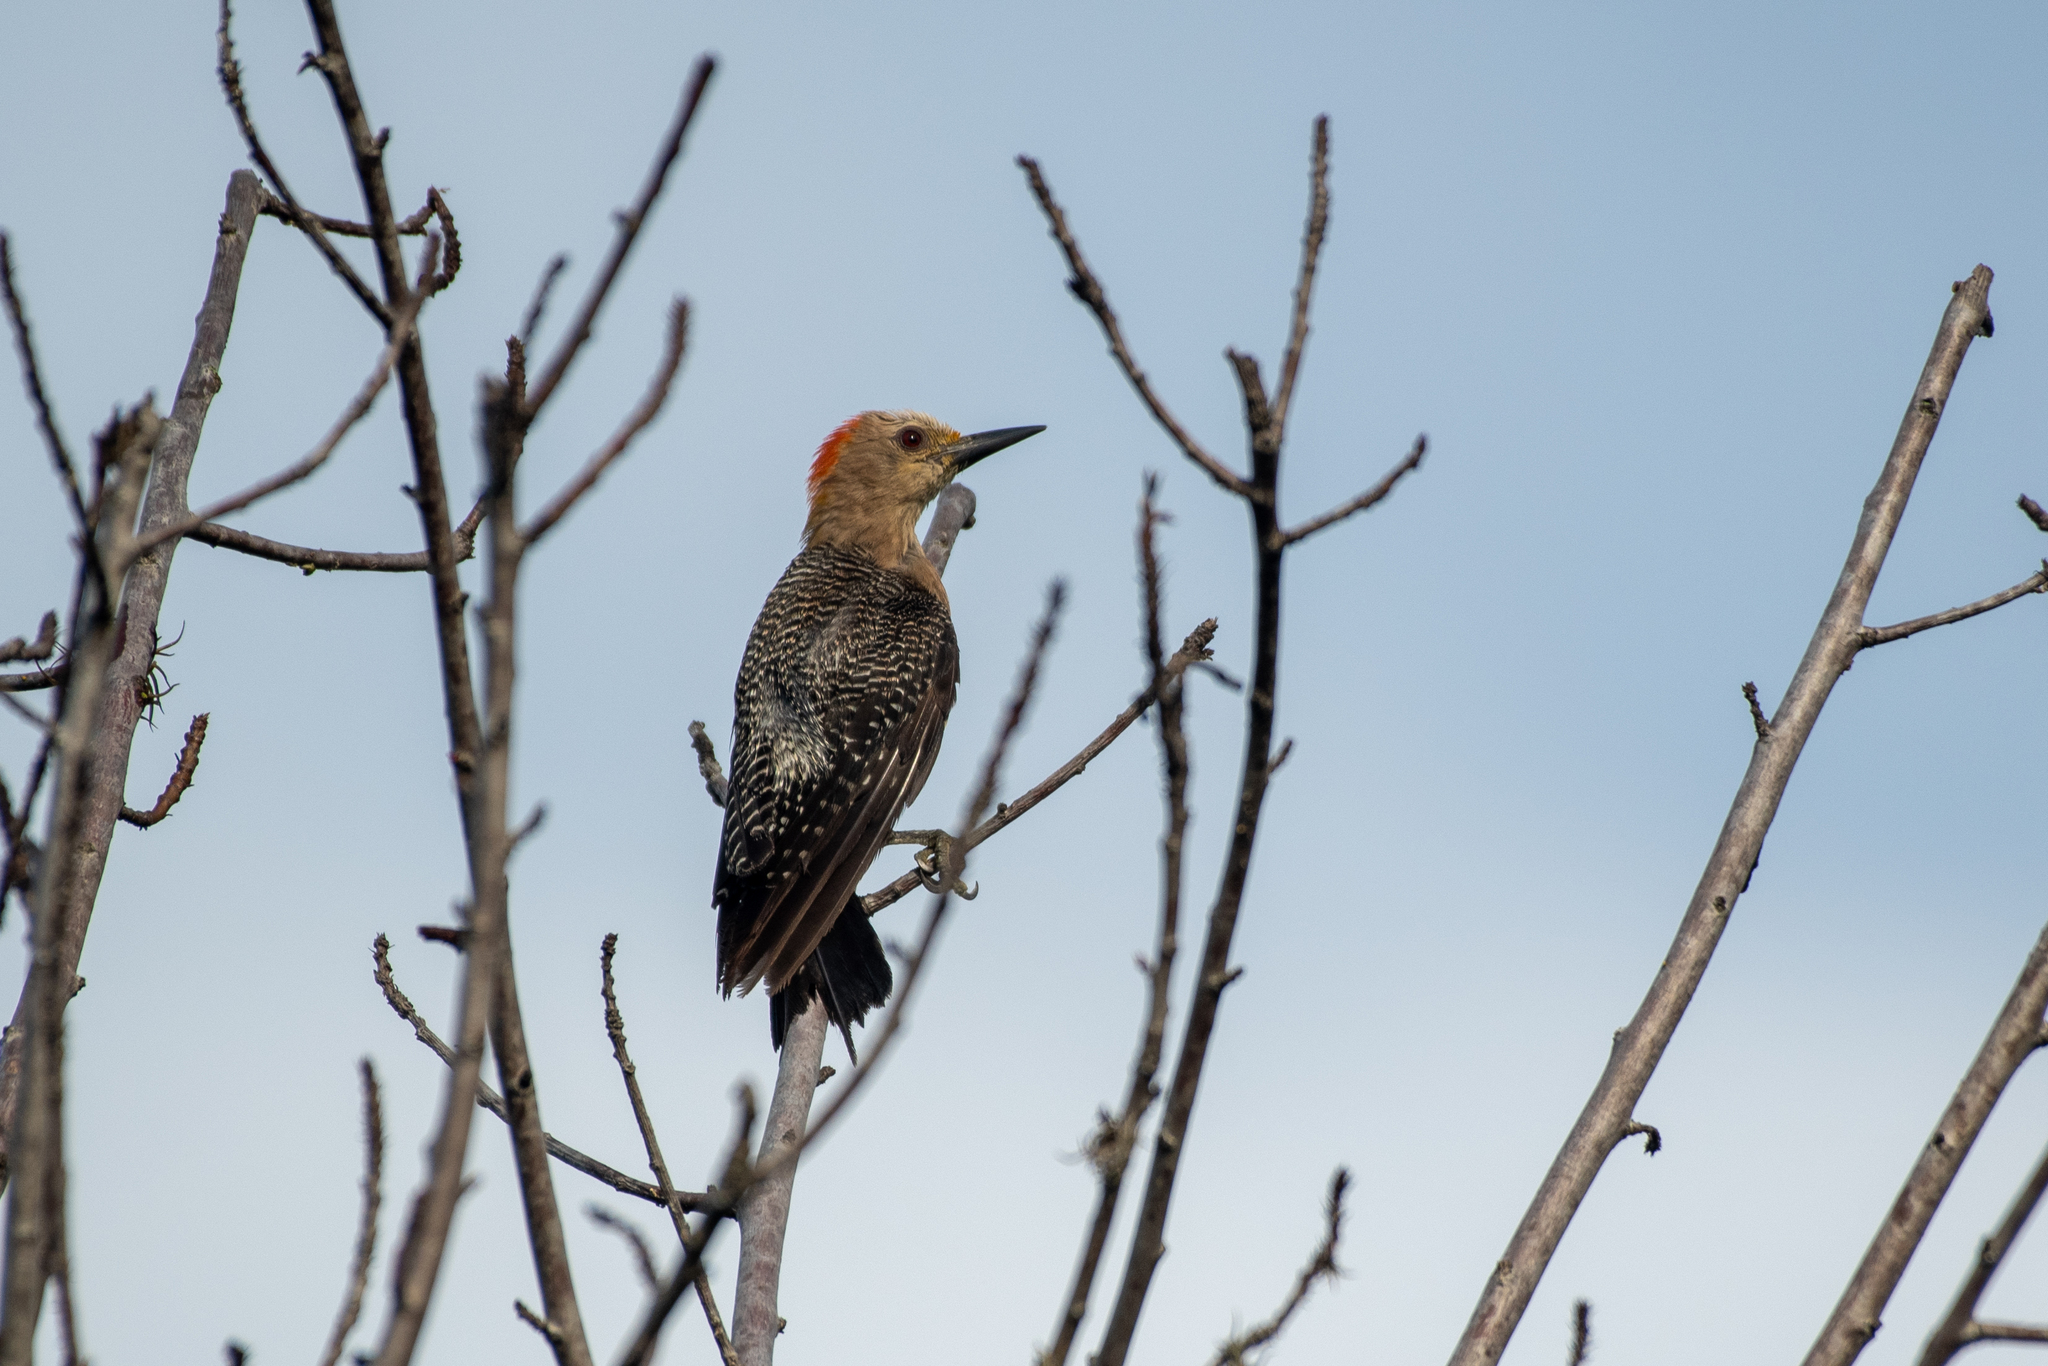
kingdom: Animalia
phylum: Chordata
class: Aves
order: Piciformes
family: Picidae
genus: Melanerpes
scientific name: Melanerpes aurifrons
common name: Golden-fronted woodpecker
